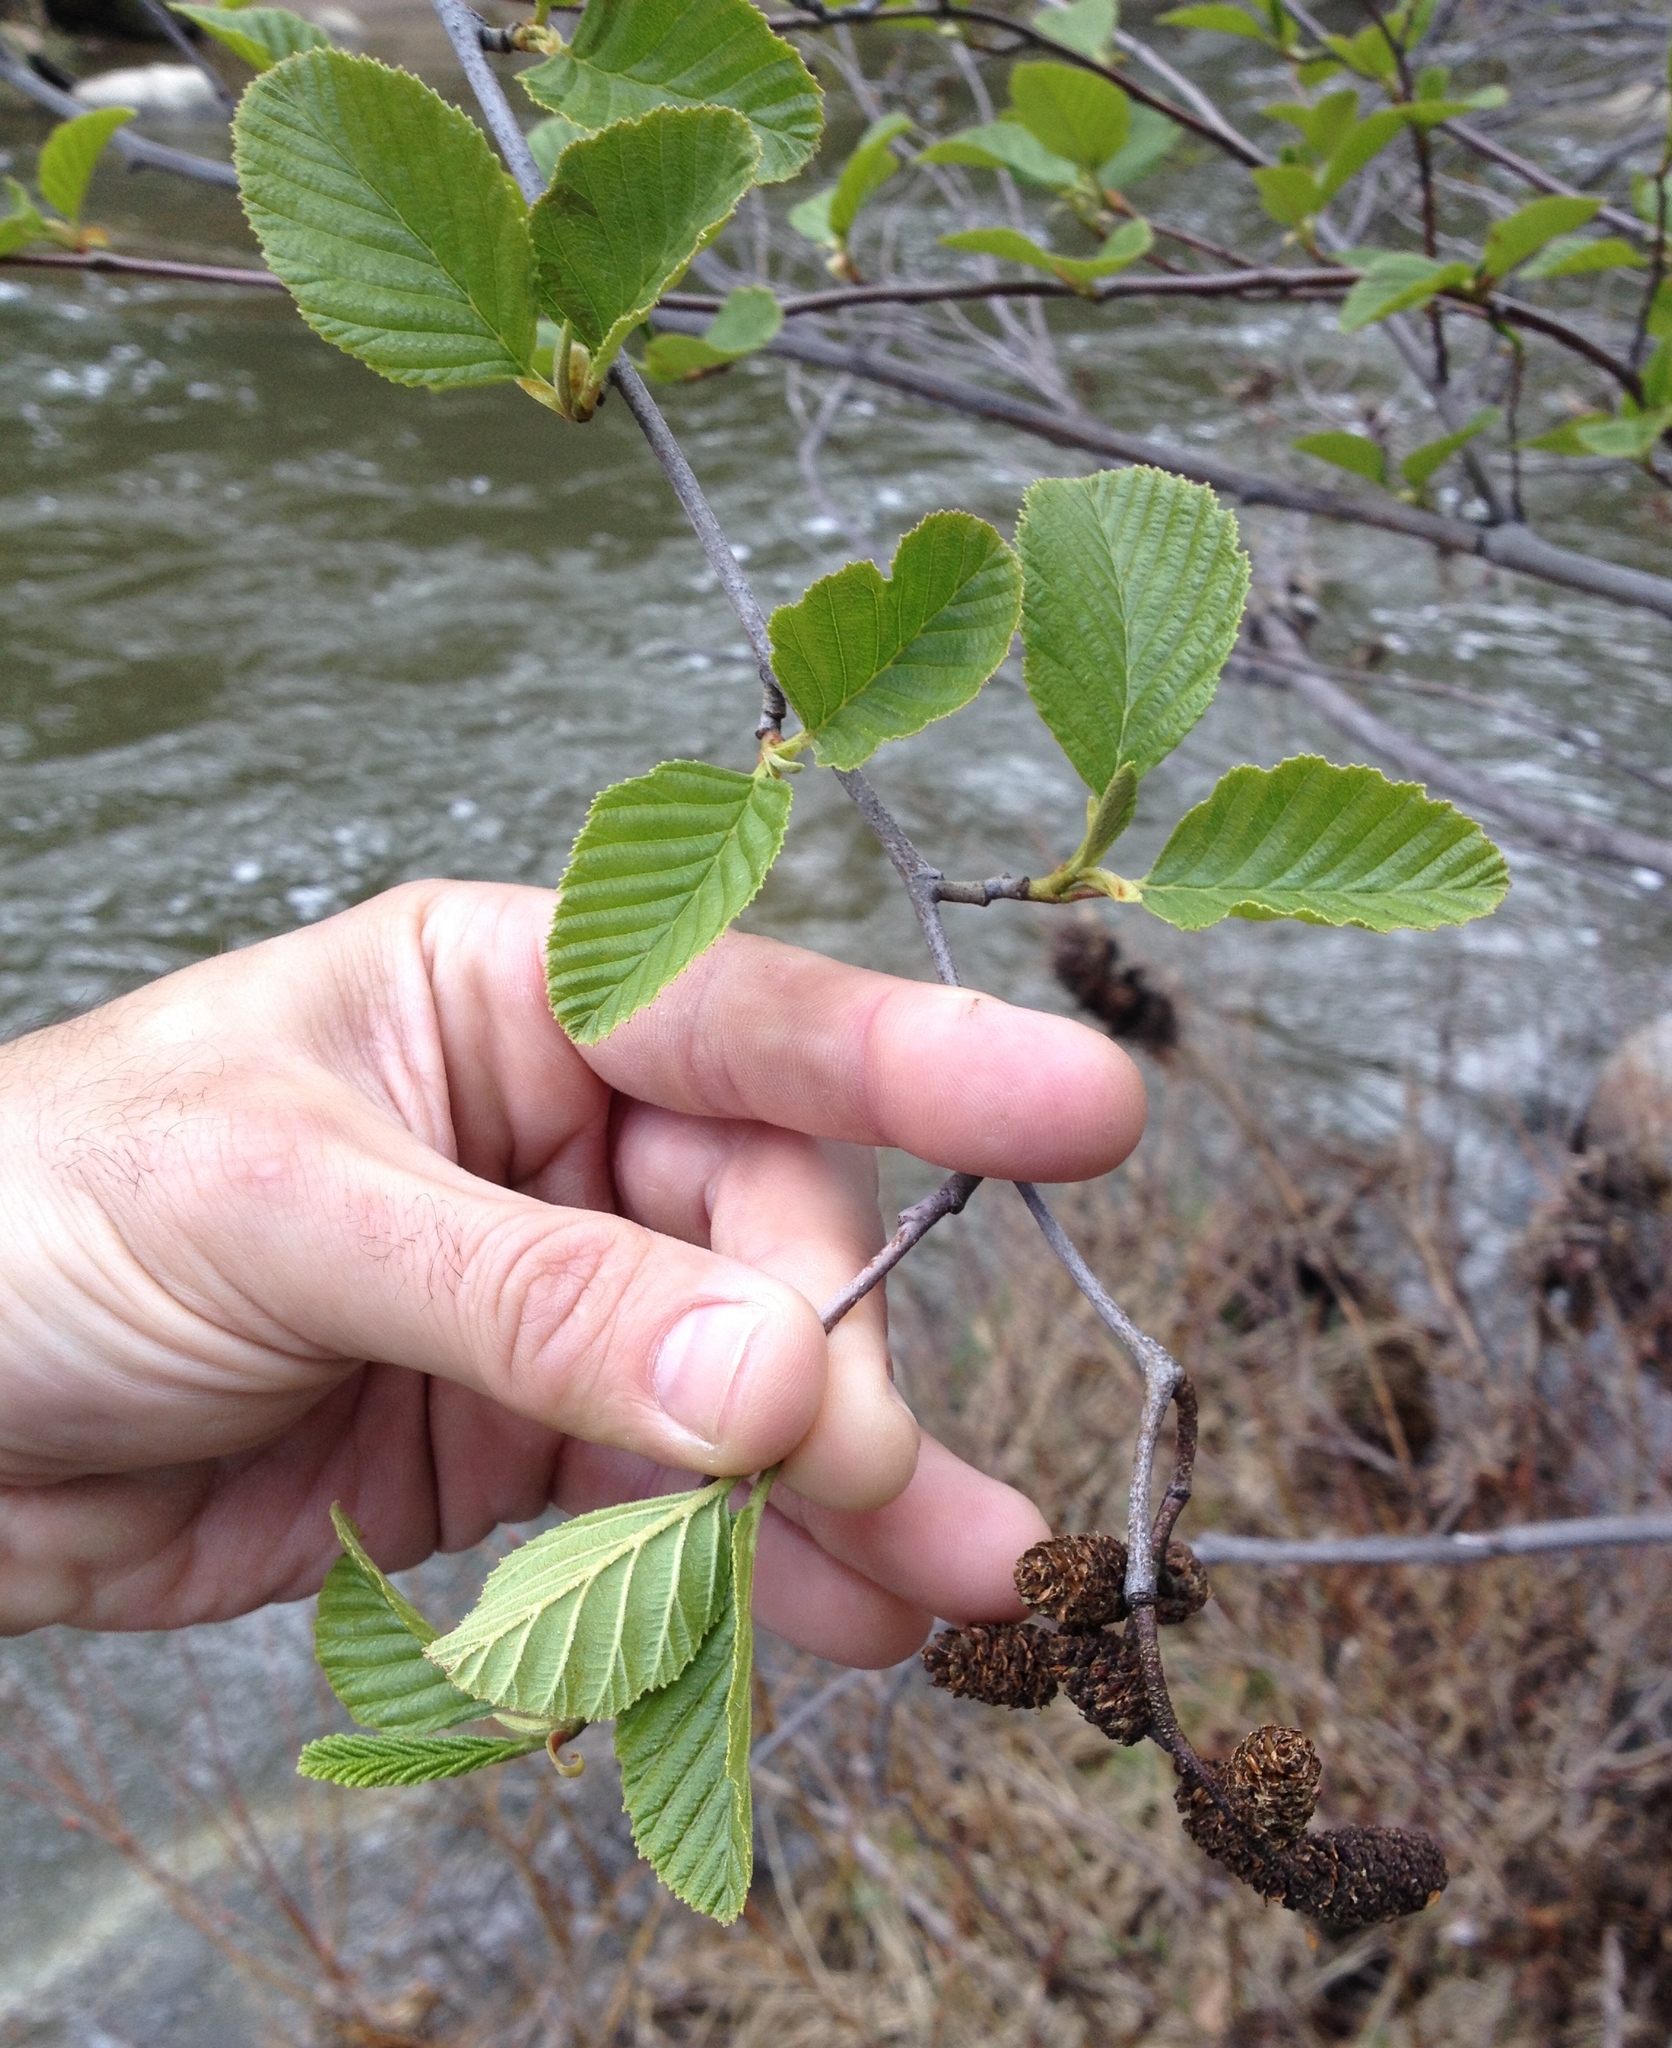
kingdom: Plantae
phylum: Tracheophyta
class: Magnoliopsida
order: Fagales
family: Betulaceae
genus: Alnus
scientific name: Alnus rhombifolia
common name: California alder
